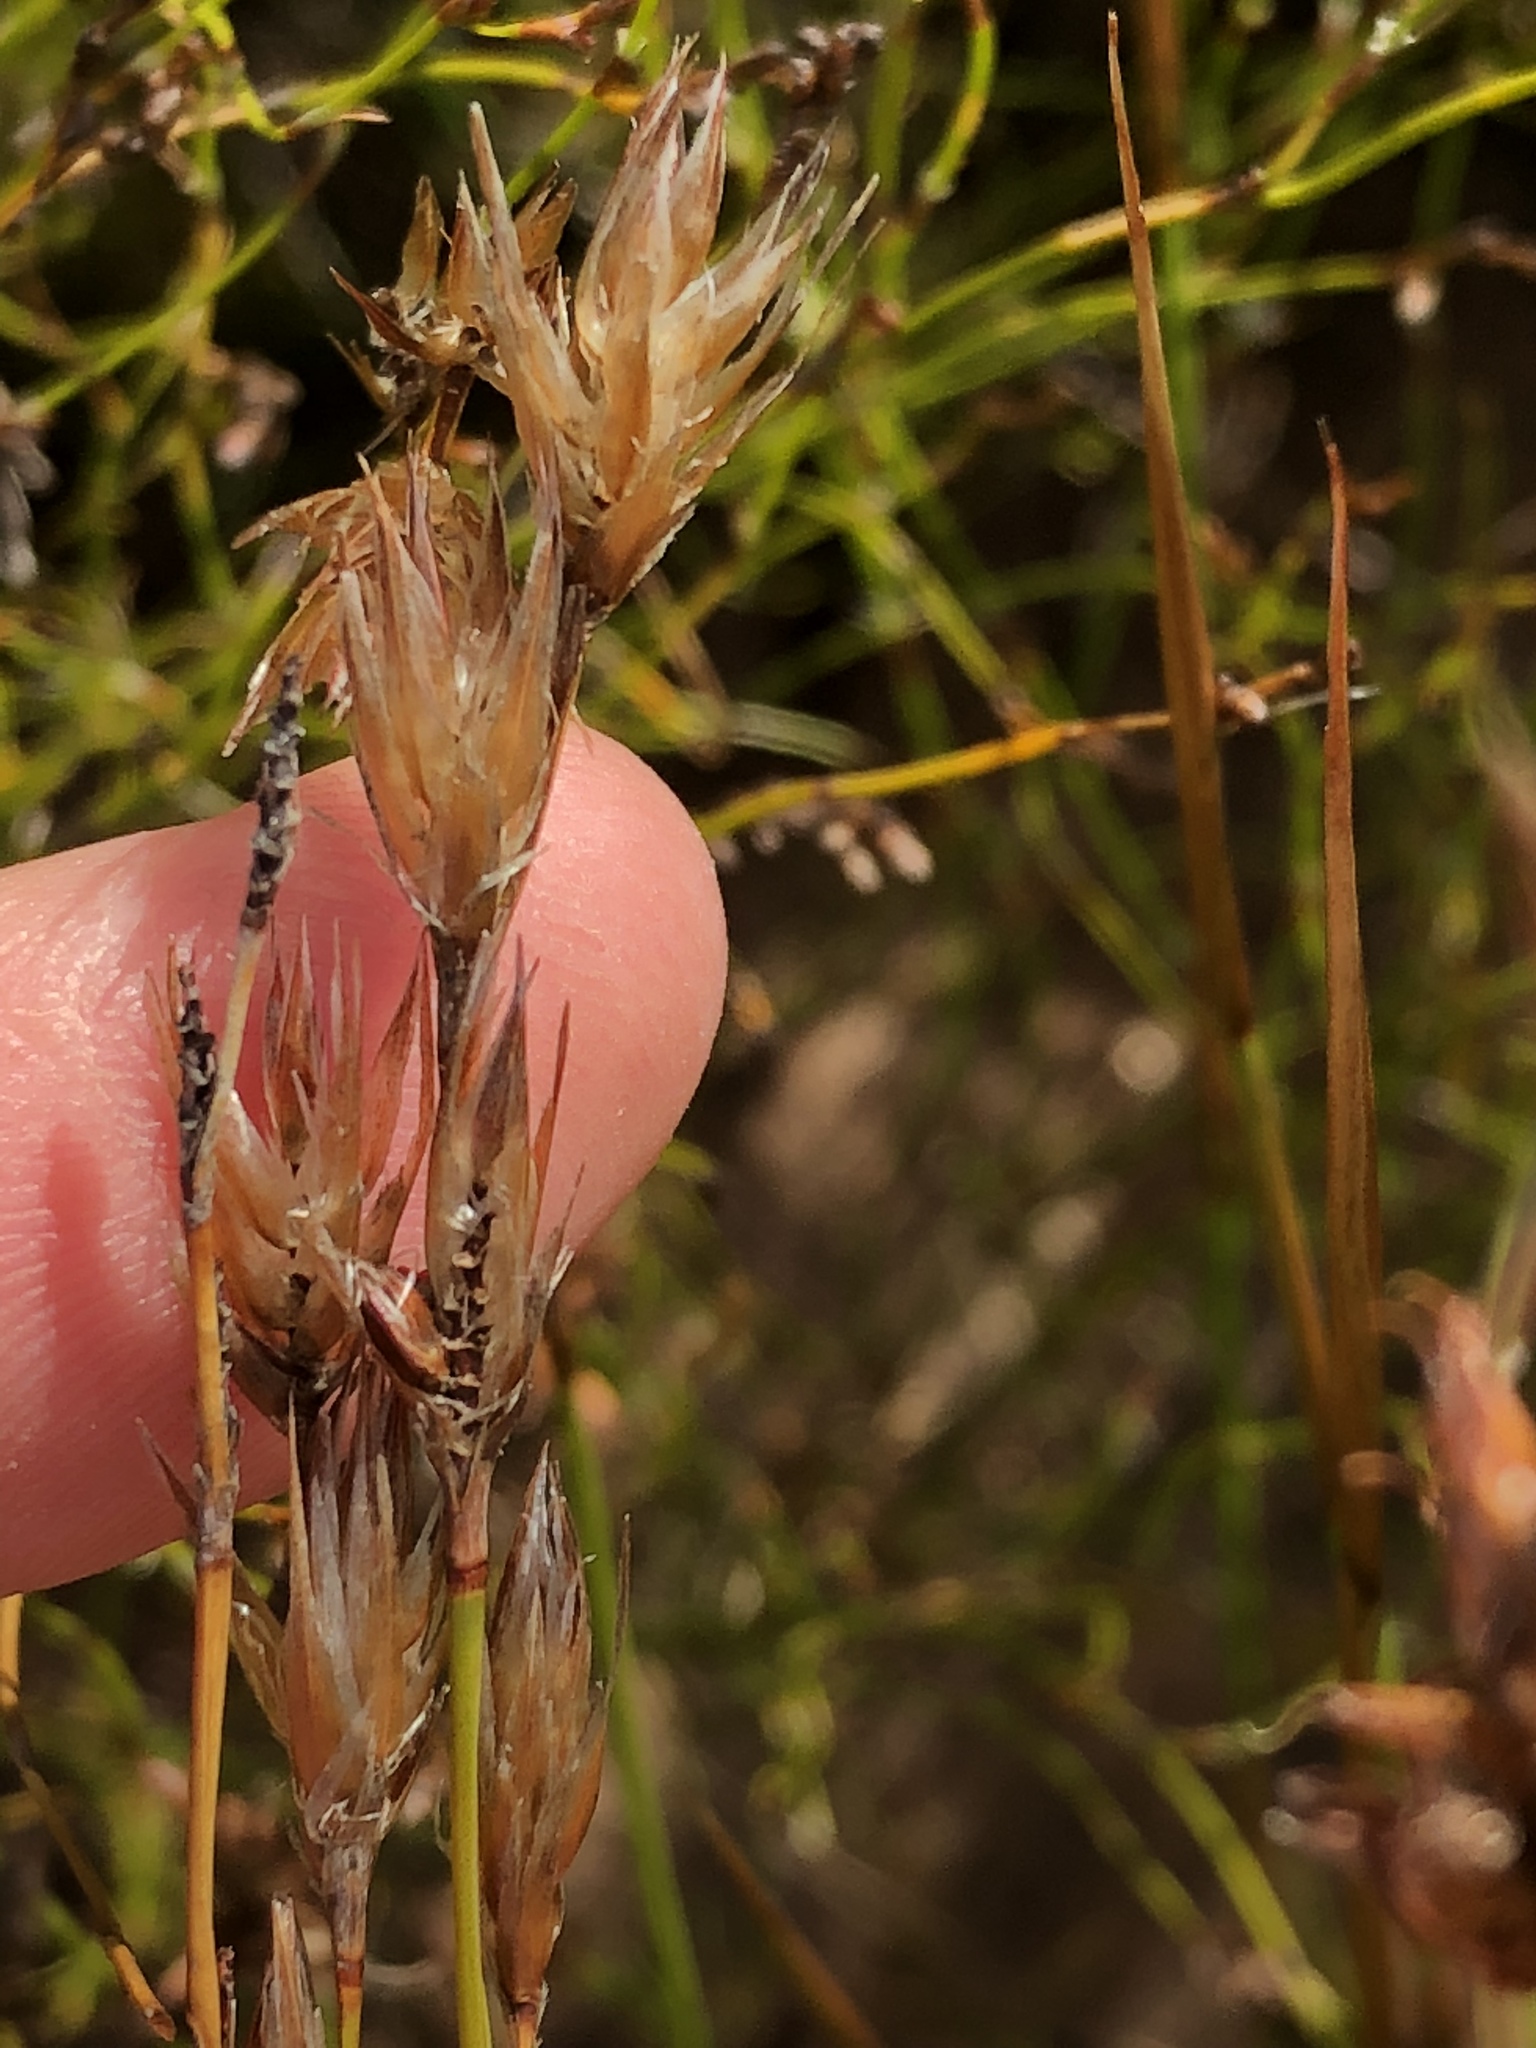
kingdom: Plantae
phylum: Tracheophyta
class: Liliopsida
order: Poales
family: Restionaceae
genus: Thamnochortus
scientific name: Thamnochortus guthrieae
